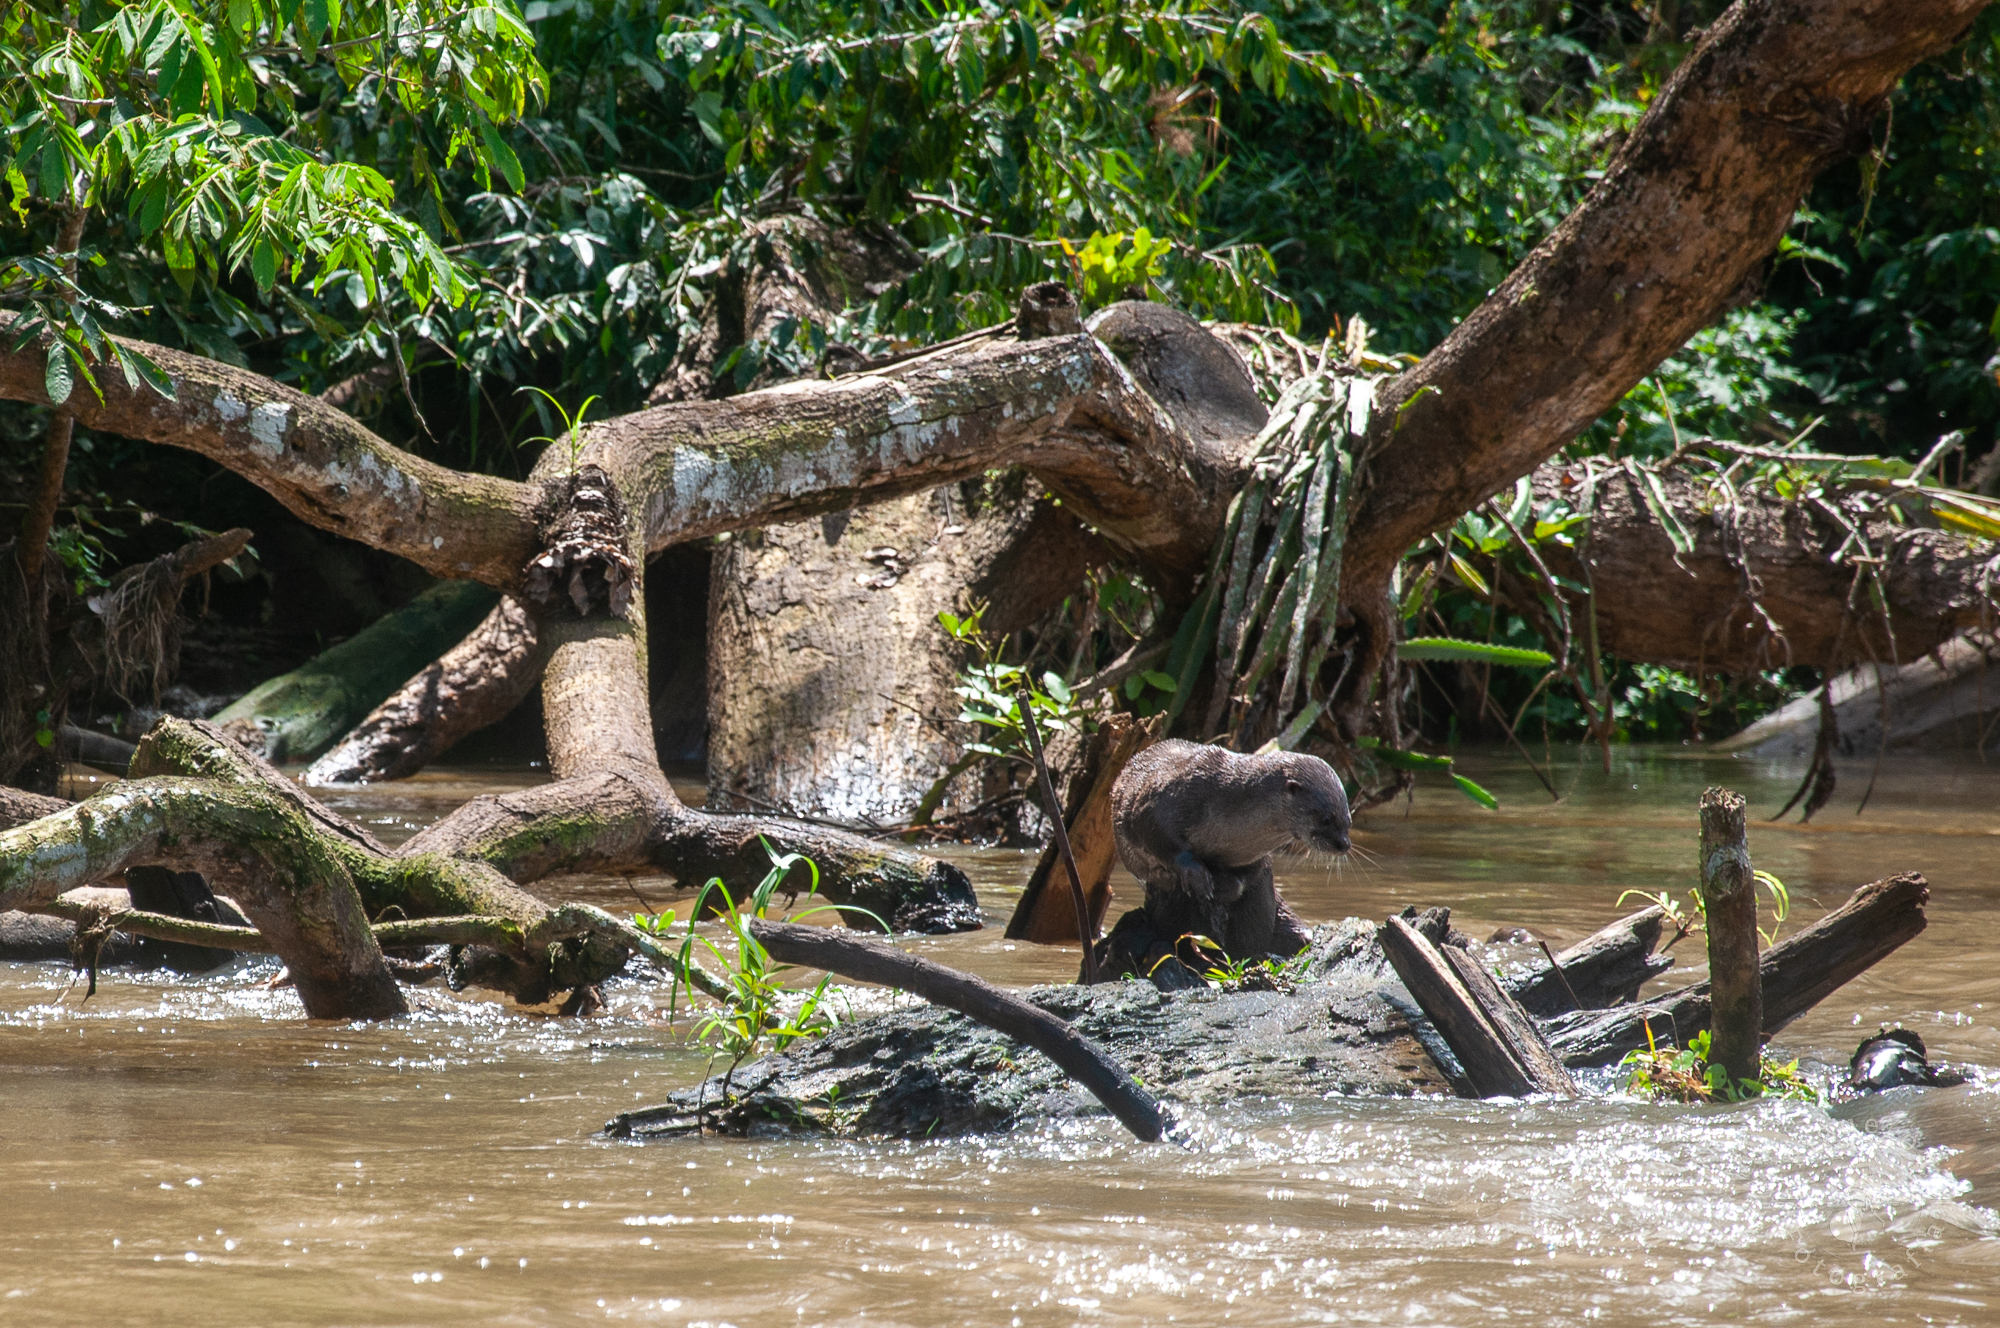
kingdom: Animalia
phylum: Chordata
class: Mammalia
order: Carnivora
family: Mustelidae
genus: Lontra
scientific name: Lontra longicaudis
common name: Neotropical otter
